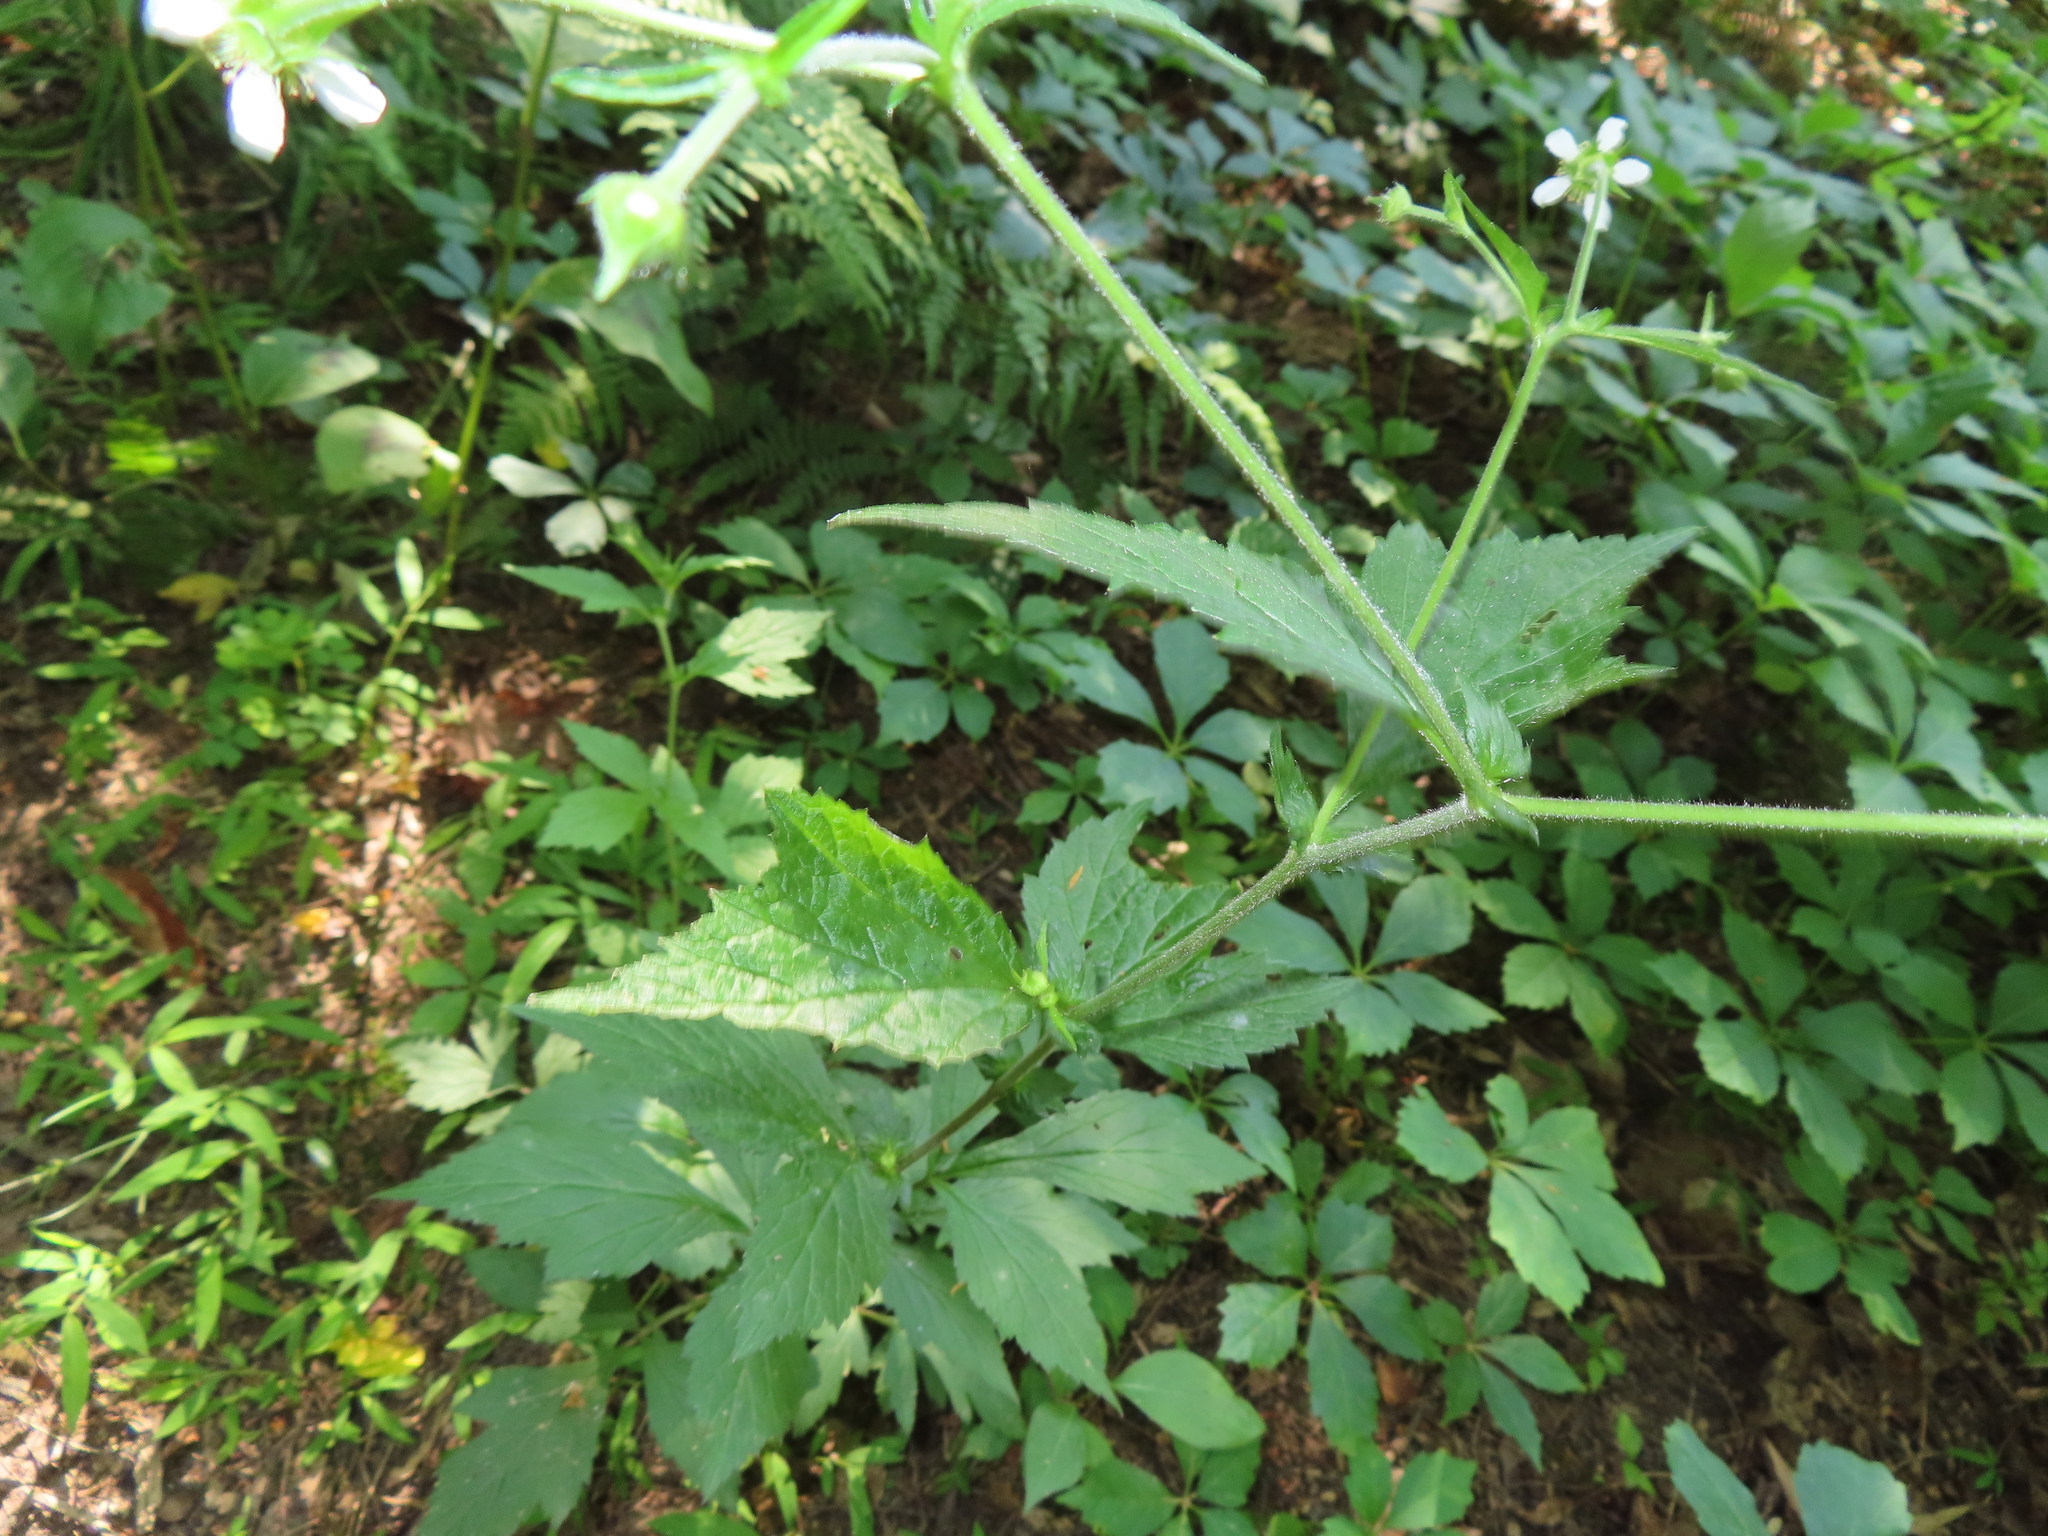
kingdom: Plantae
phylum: Tracheophyta
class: Magnoliopsida
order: Rosales
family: Rosaceae
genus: Geum
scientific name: Geum canadense
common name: White avens
